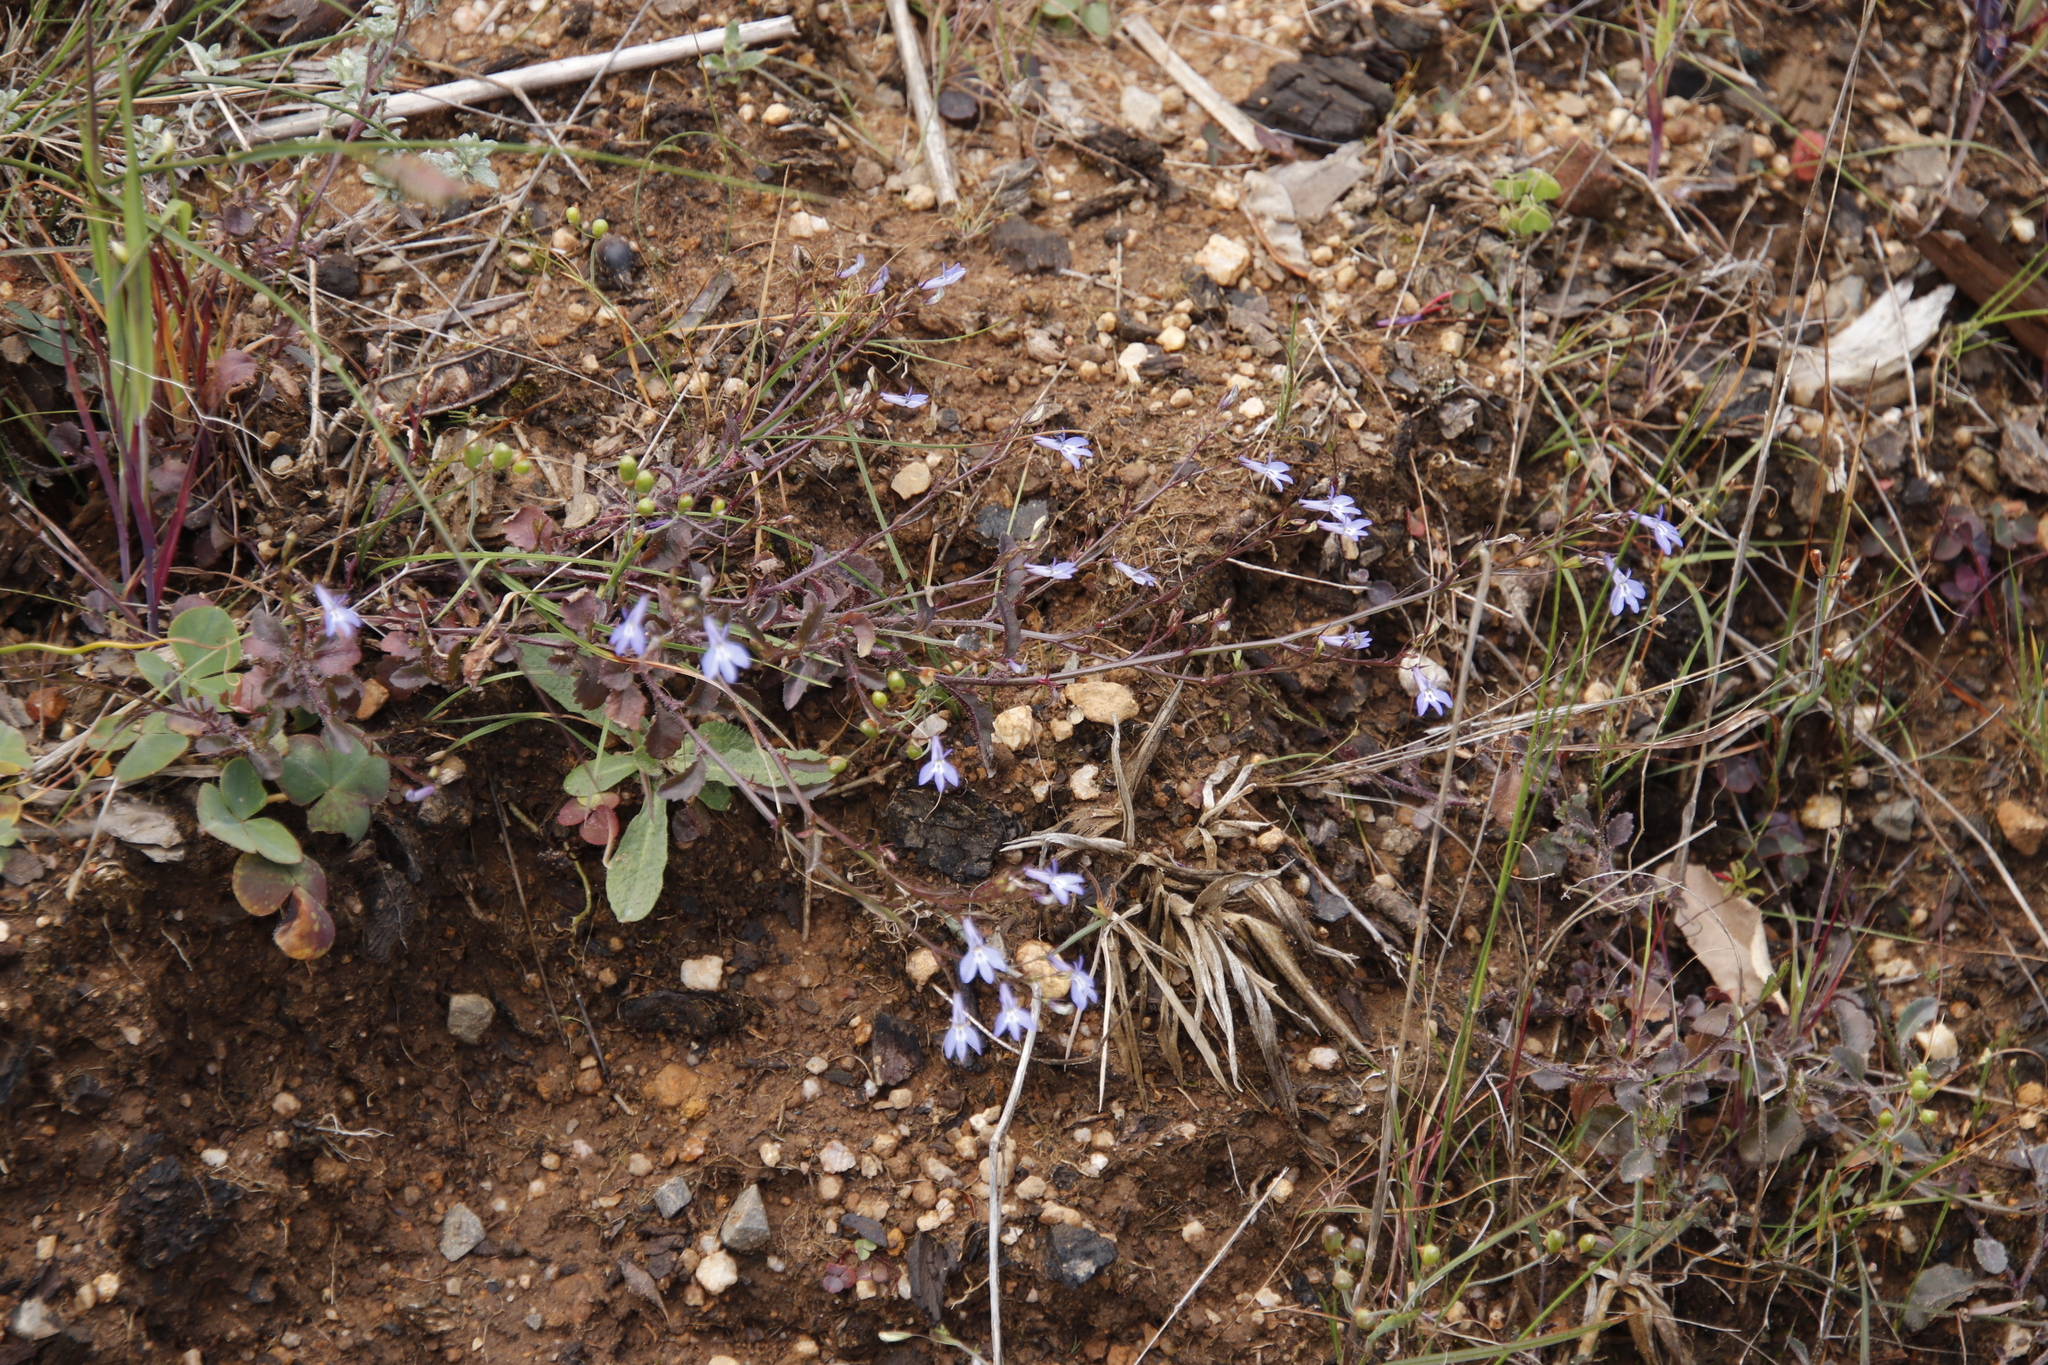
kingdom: Plantae
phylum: Tracheophyta
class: Magnoliopsida
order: Asterales
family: Campanulaceae
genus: Lobelia
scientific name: Lobelia erinus
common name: Edging lobelia
